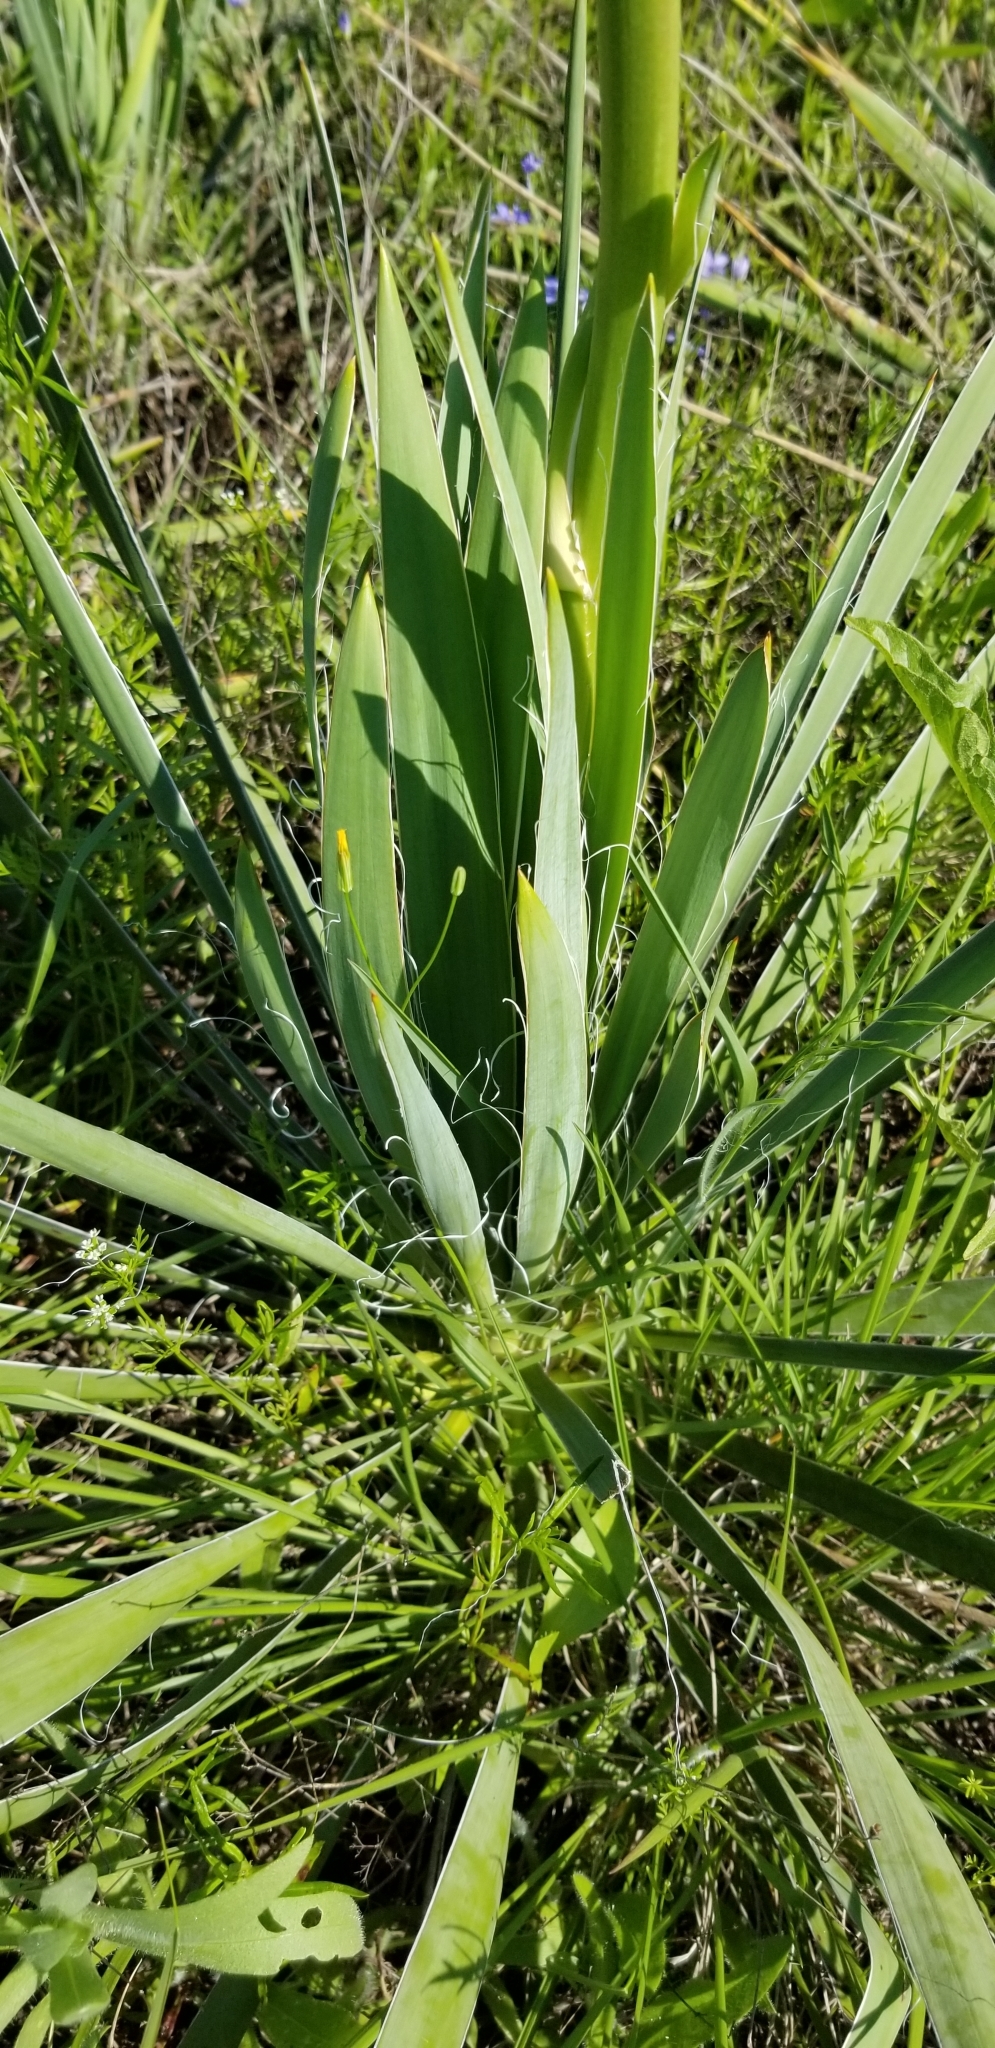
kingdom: Plantae
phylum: Tracheophyta
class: Liliopsida
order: Asparagales
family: Asparagaceae
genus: Yucca
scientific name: Yucca arkansana
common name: Arkansas yucca
